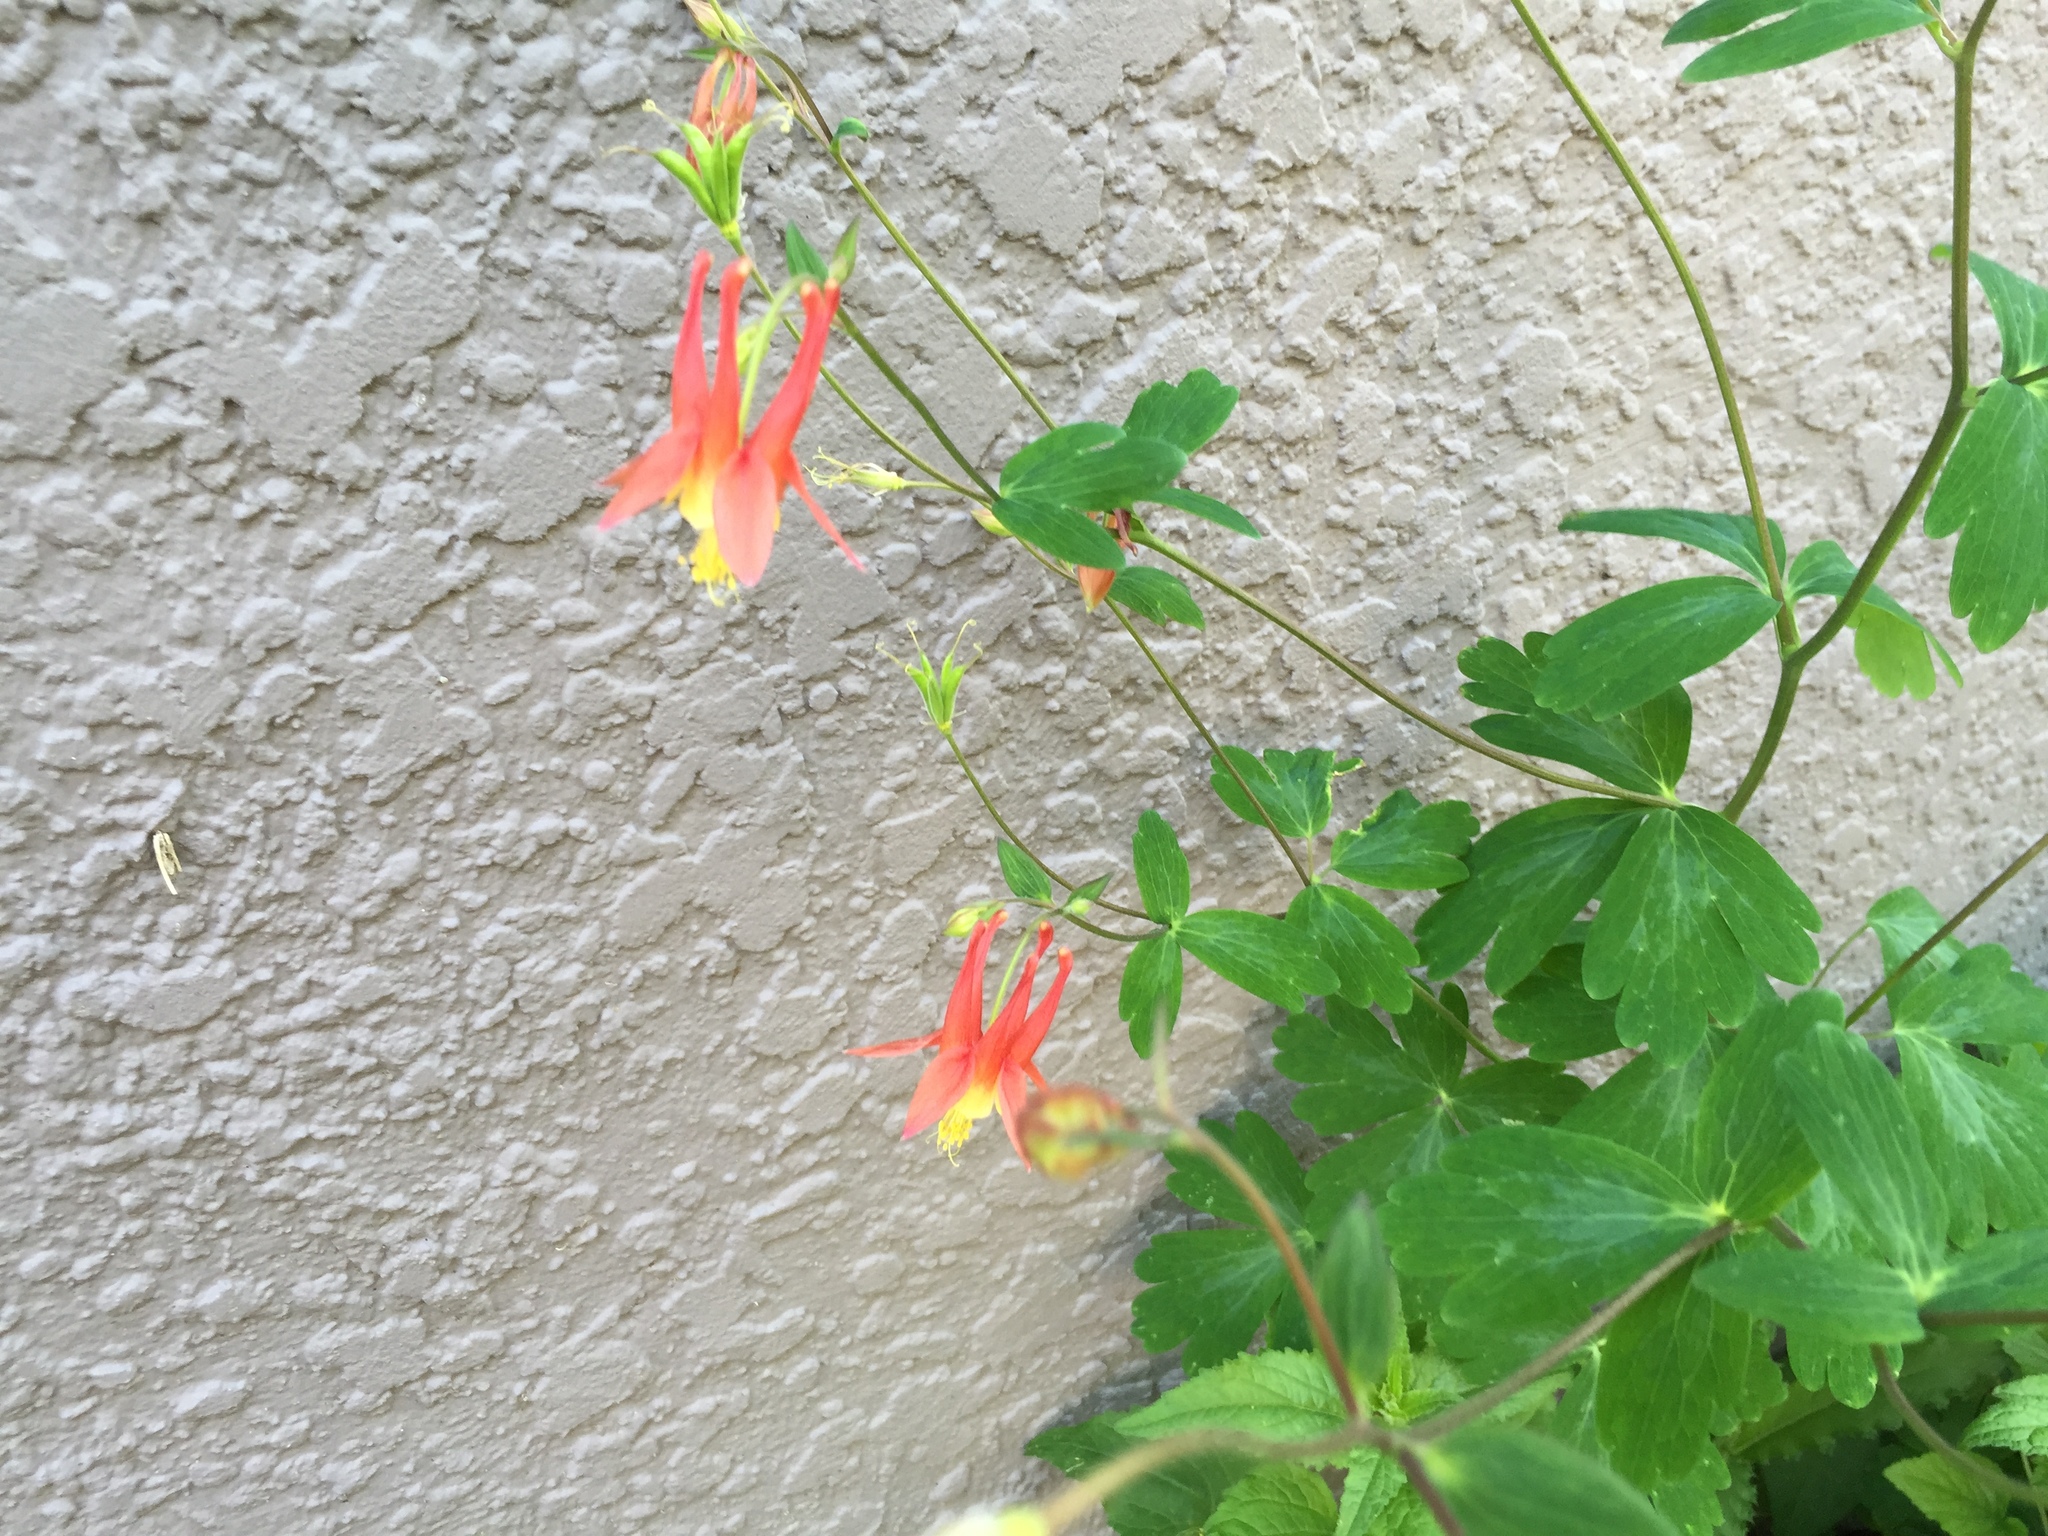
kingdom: Plantae
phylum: Tracheophyta
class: Magnoliopsida
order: Ranunculales
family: Ranunculaceae
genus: Aquilegia
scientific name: Aquilegia canadensis
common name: American columbine
